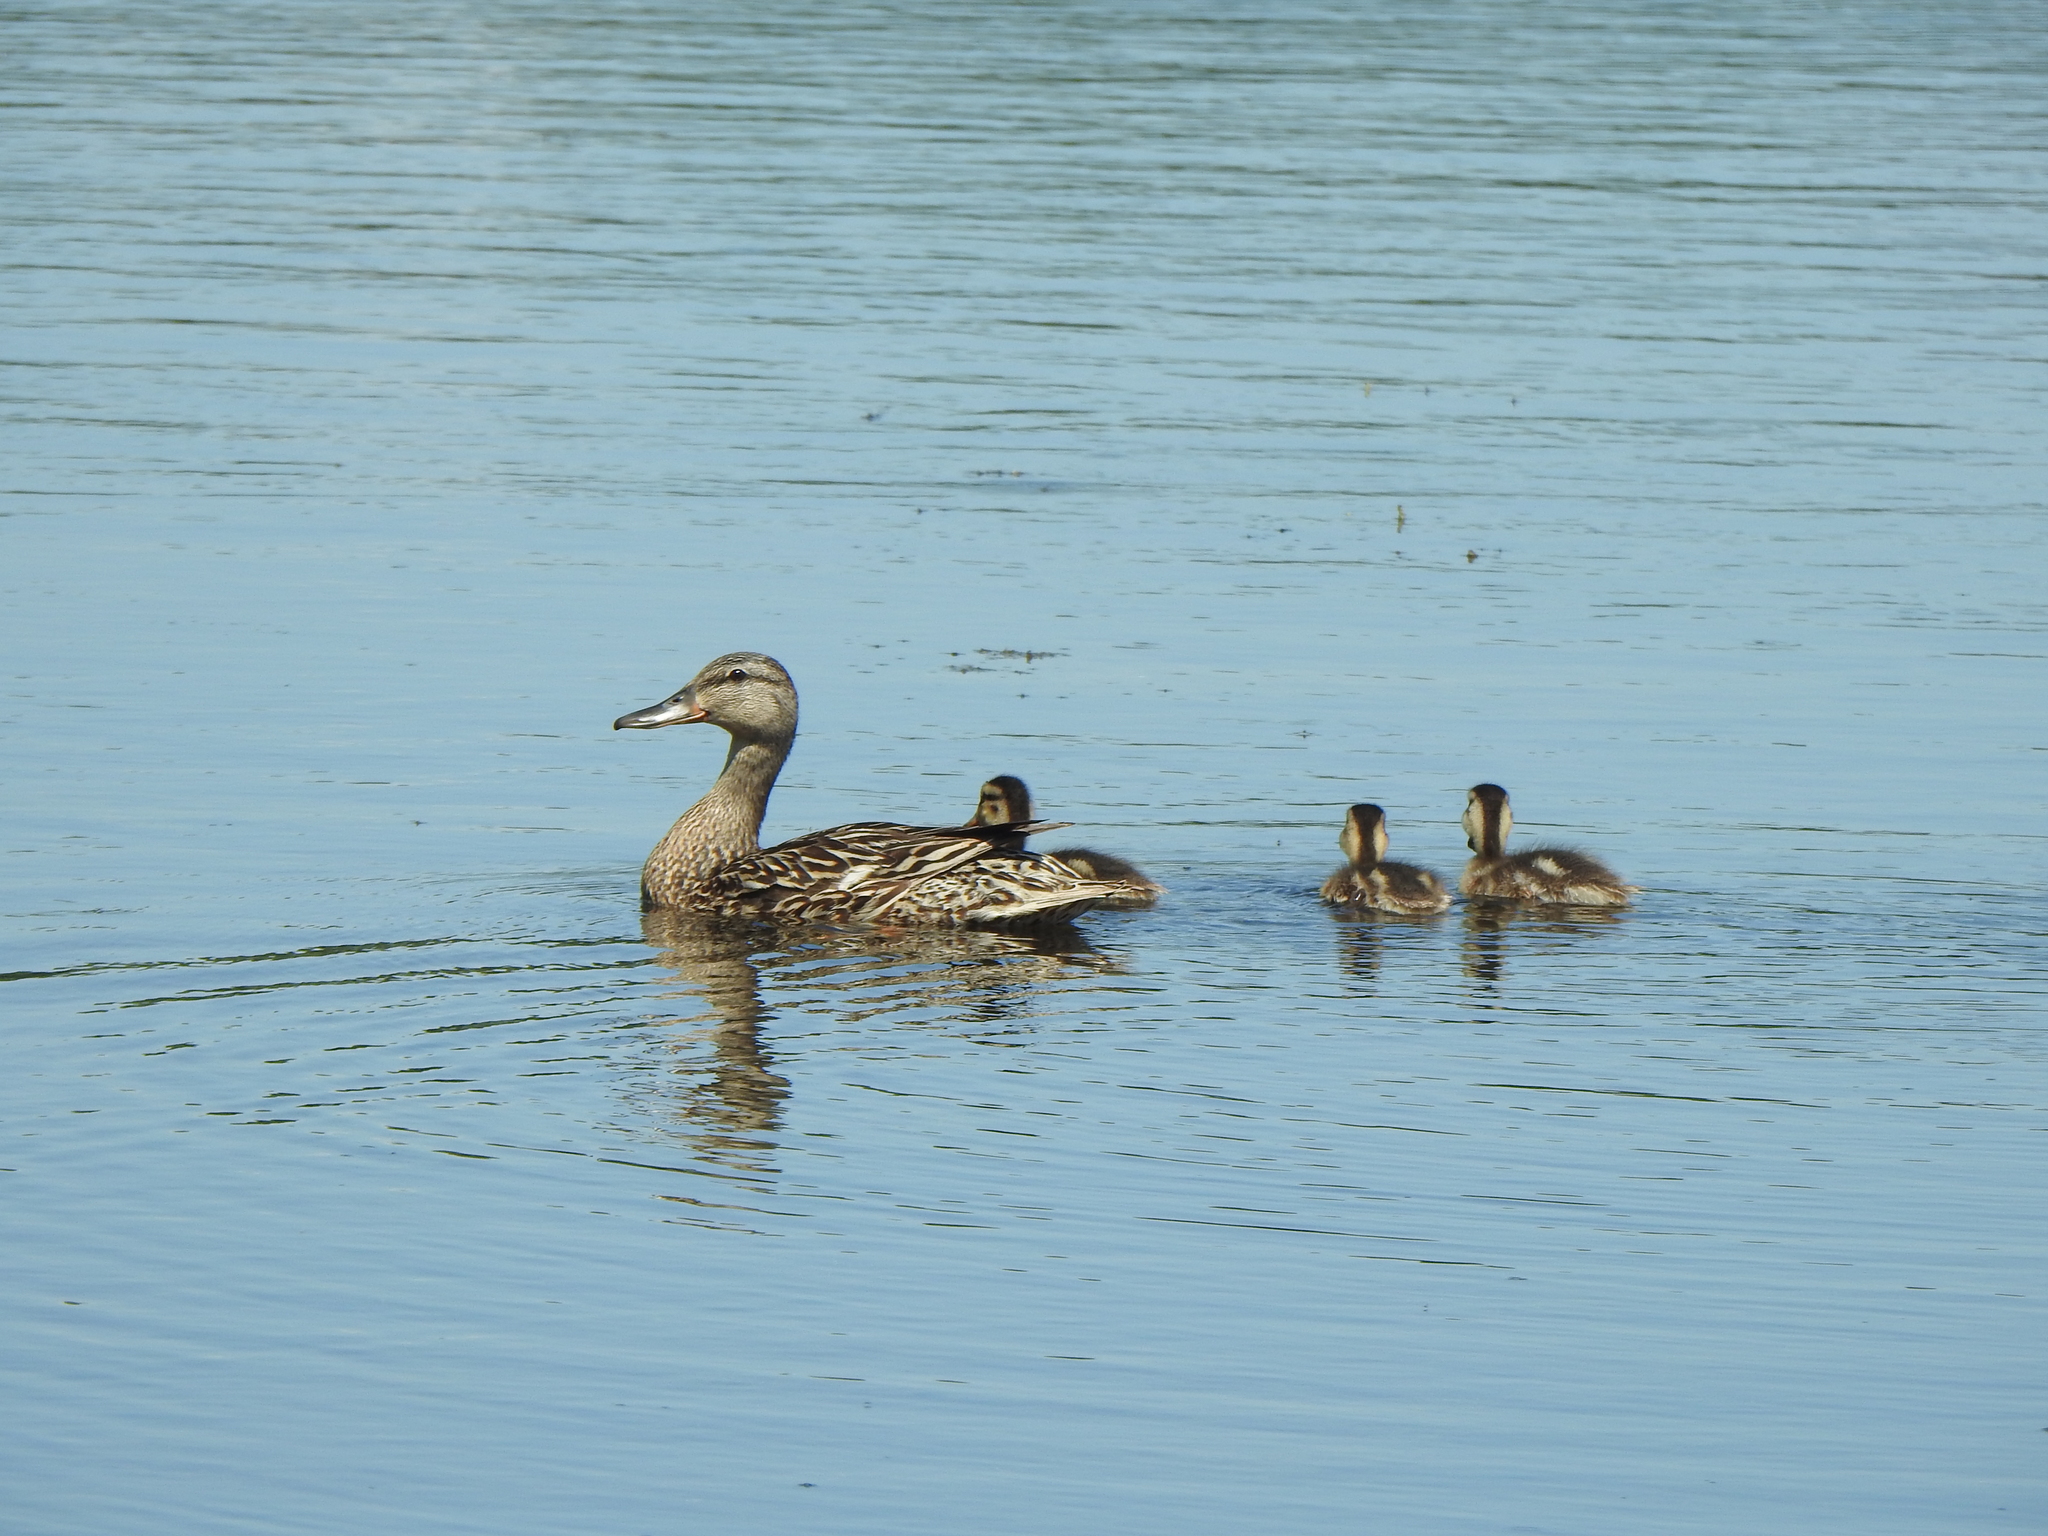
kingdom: Animalia
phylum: Chordata
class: Aves
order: Anseriformes
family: Anatidae
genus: Anas
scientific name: Anas platyrhynchos
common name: Mallard
